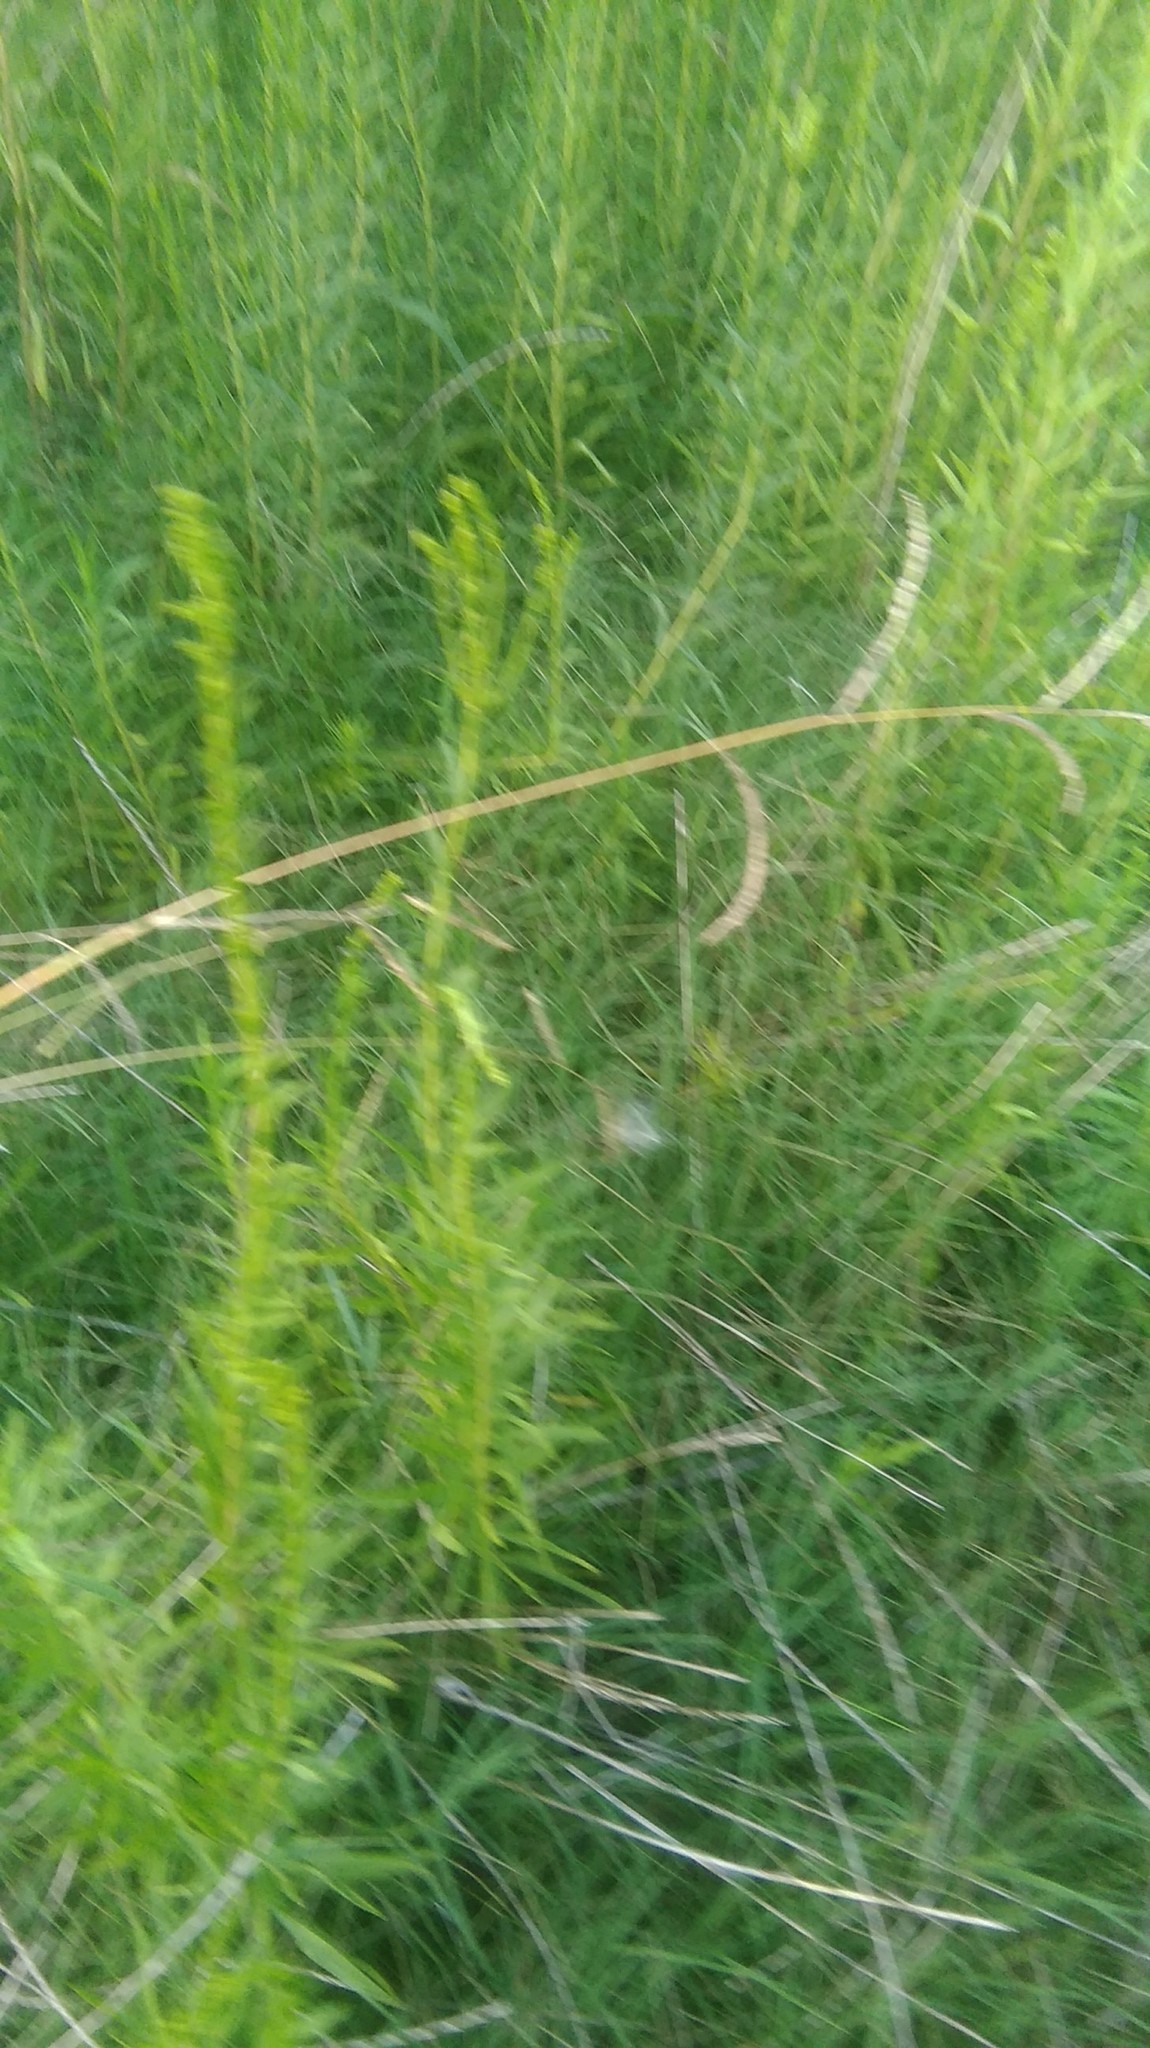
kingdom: Plantae
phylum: Tracheophyta
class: Magnoliopsida
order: Asterales
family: Asteraceae
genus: Solidago
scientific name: Solidago chilensis
